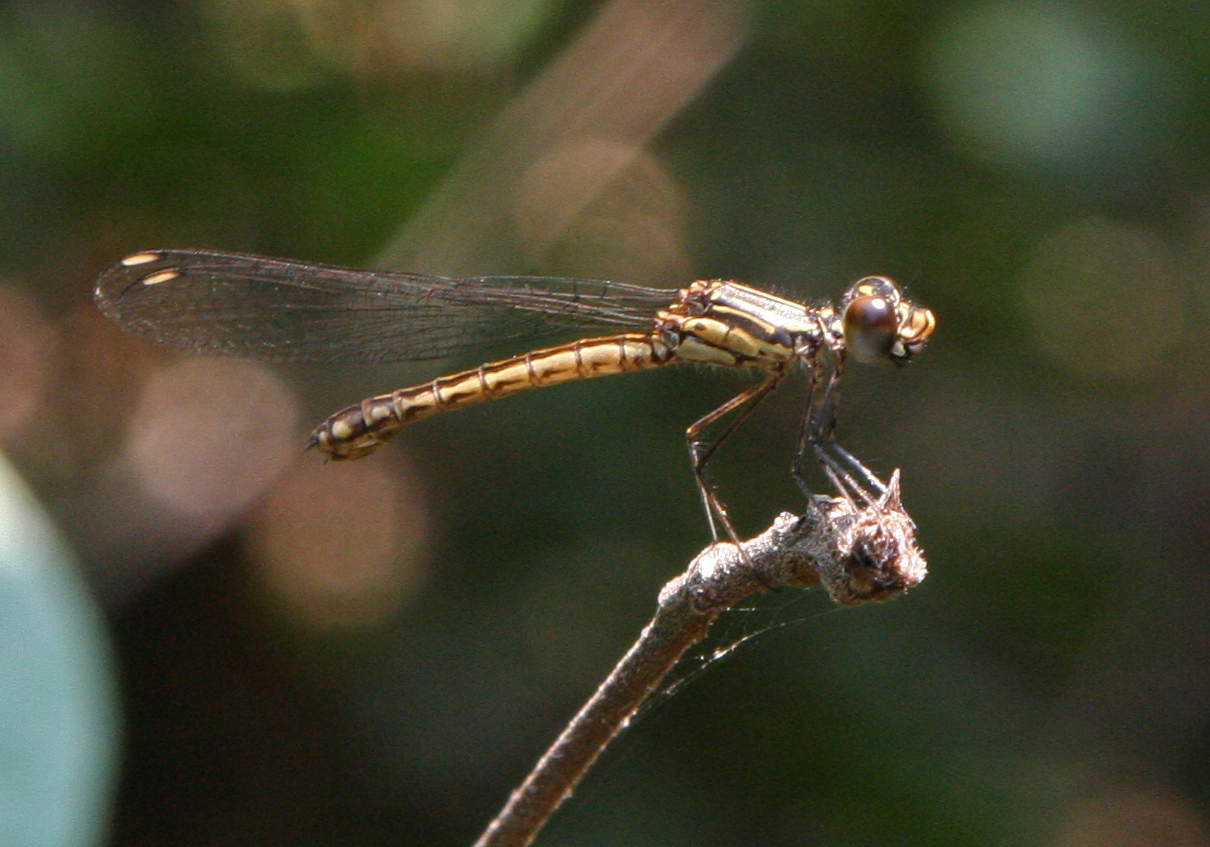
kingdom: Animalia
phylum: Arthropoda
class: Insecta
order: Odonata
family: Chlorocyphidae
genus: Libellago
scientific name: Libellago lineata
